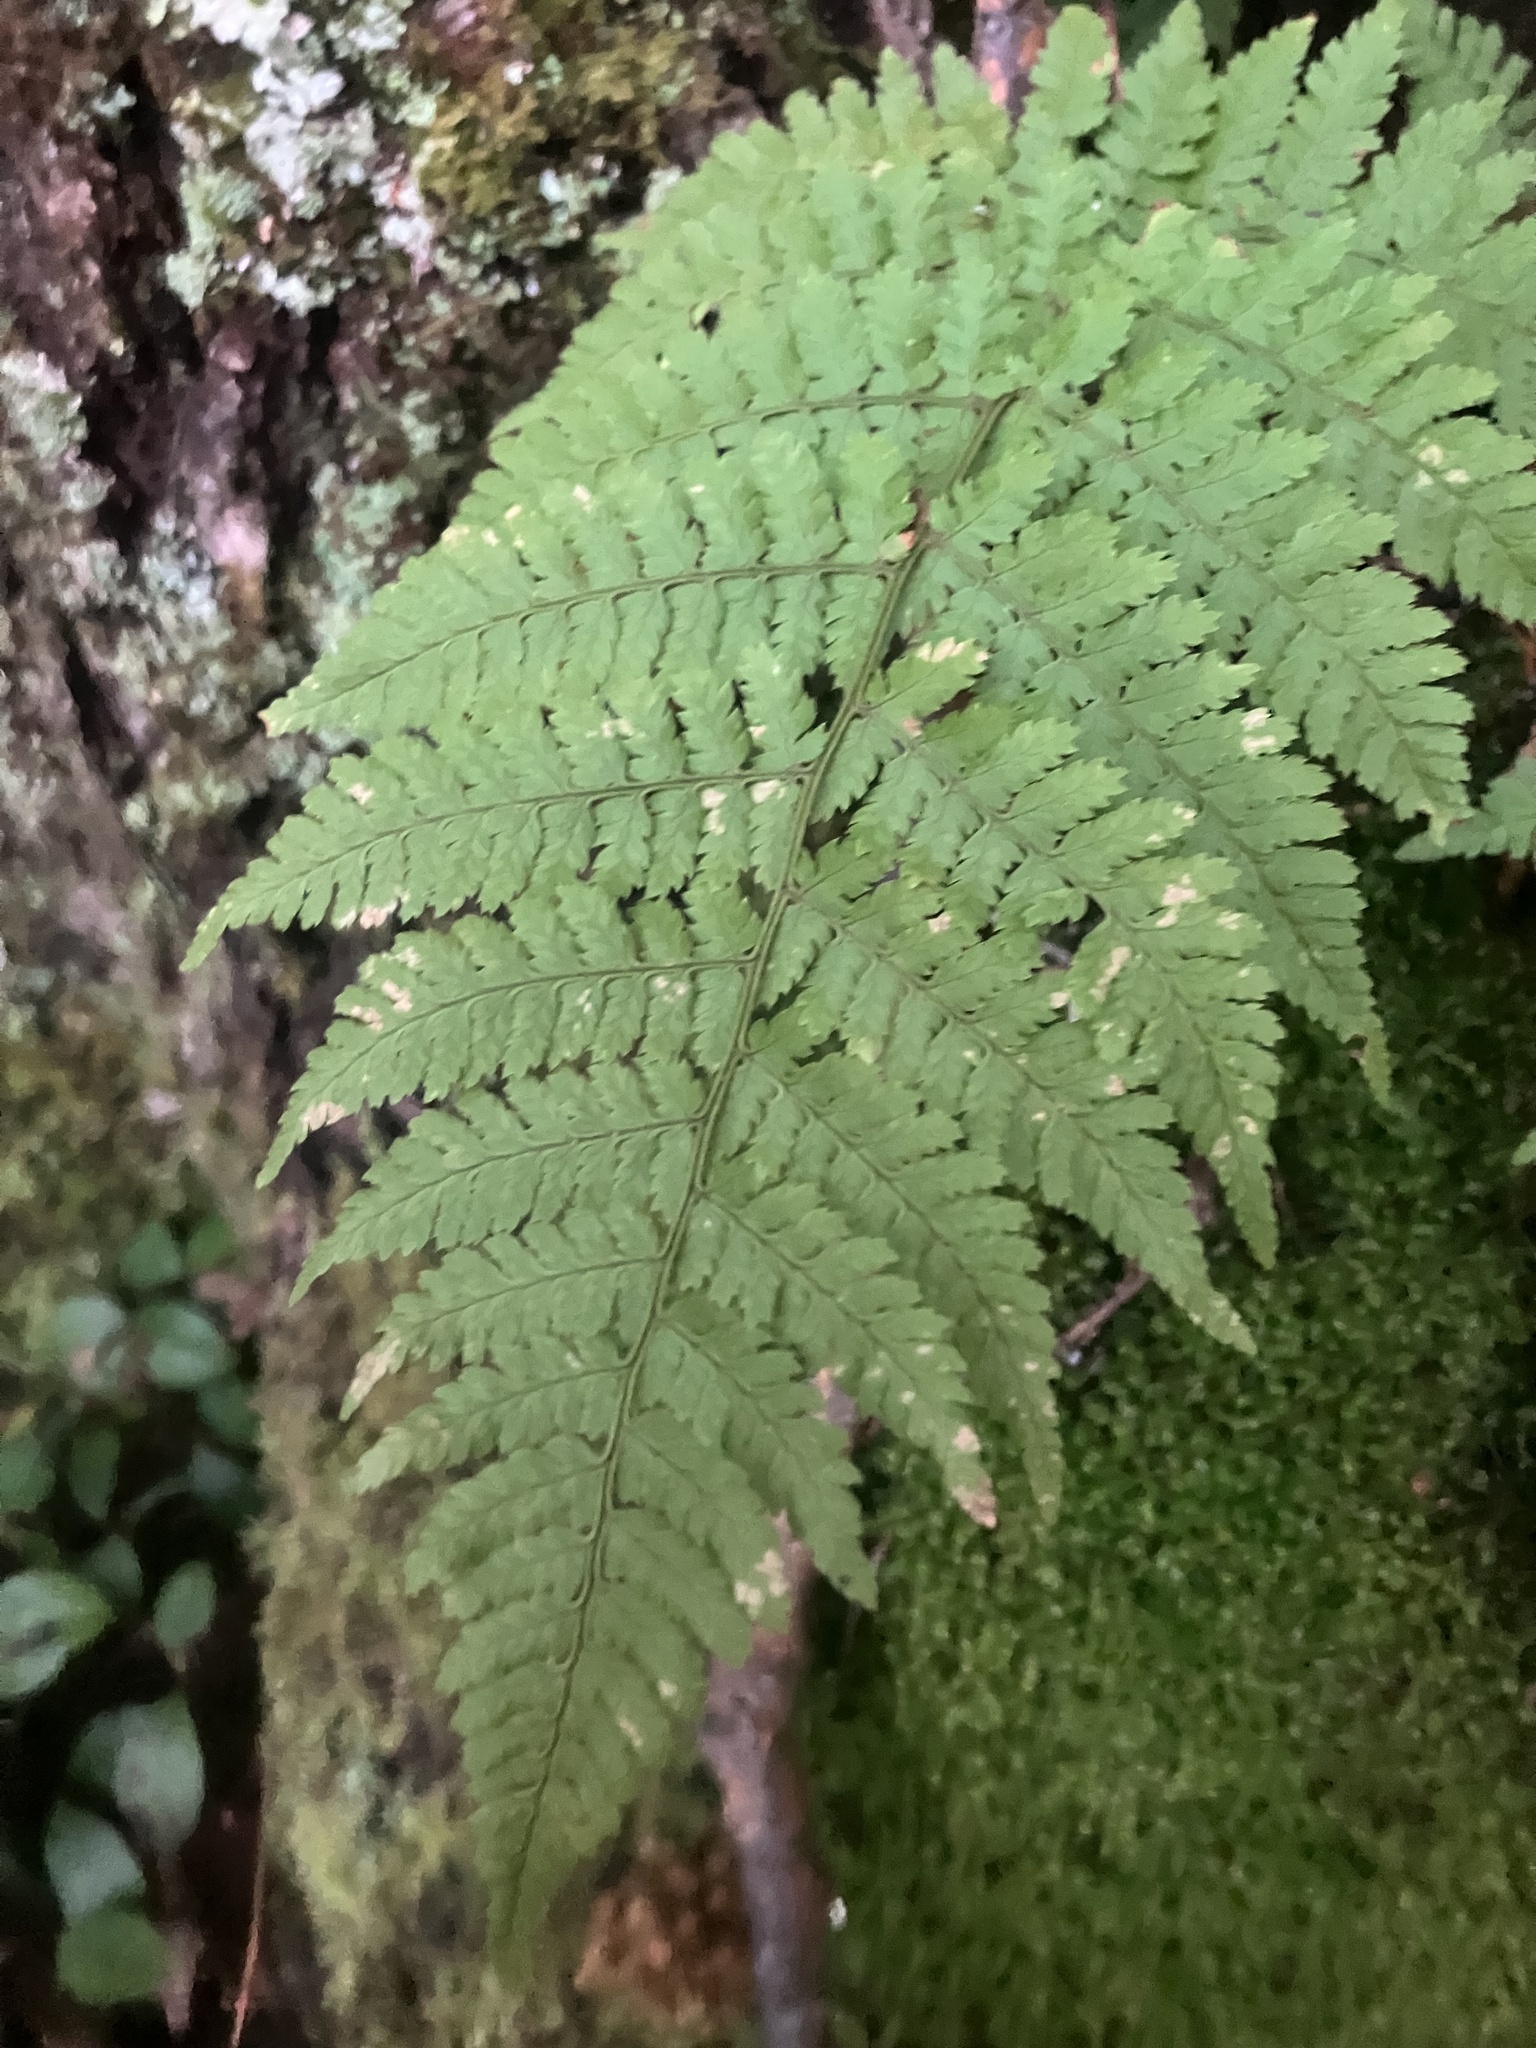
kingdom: Plantae
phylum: Tracheophyta
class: Polypodiopsida
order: Polypodiales
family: Dryopteridaceae
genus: Dryopteris
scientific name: Dryopteris intermedia
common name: Evergreen wood fern
